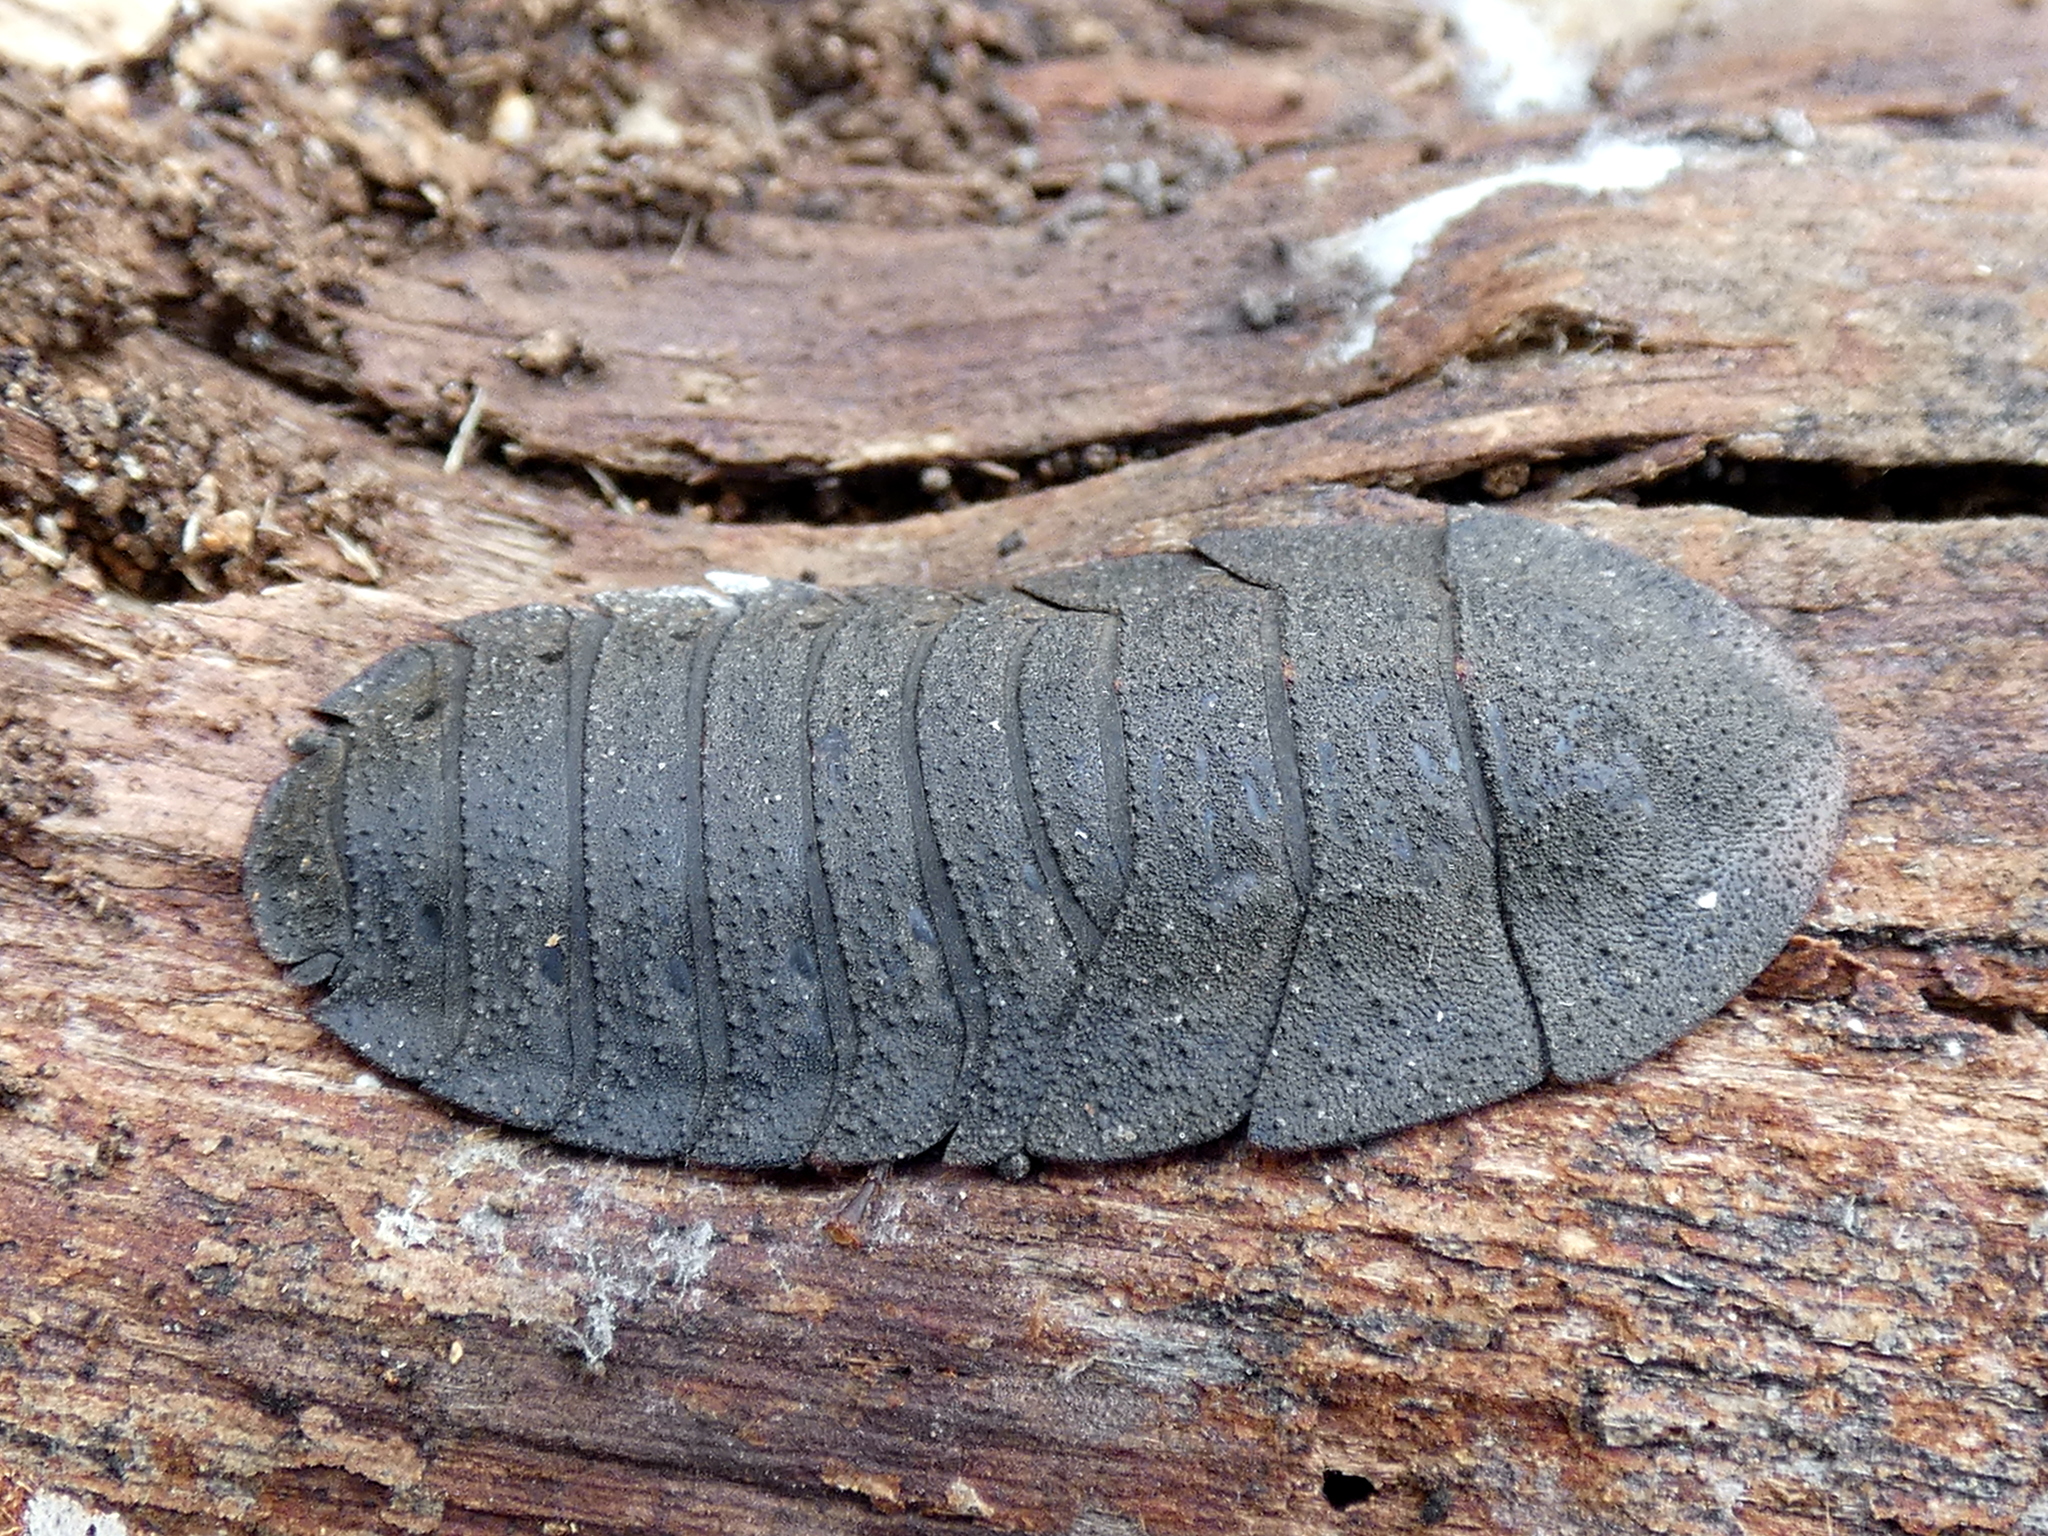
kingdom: Animalia
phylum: Arthropoda
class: Insecta
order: Blattodea
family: Blaberidae
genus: Laxta
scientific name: Laxta granicollis
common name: Bark cockroach
